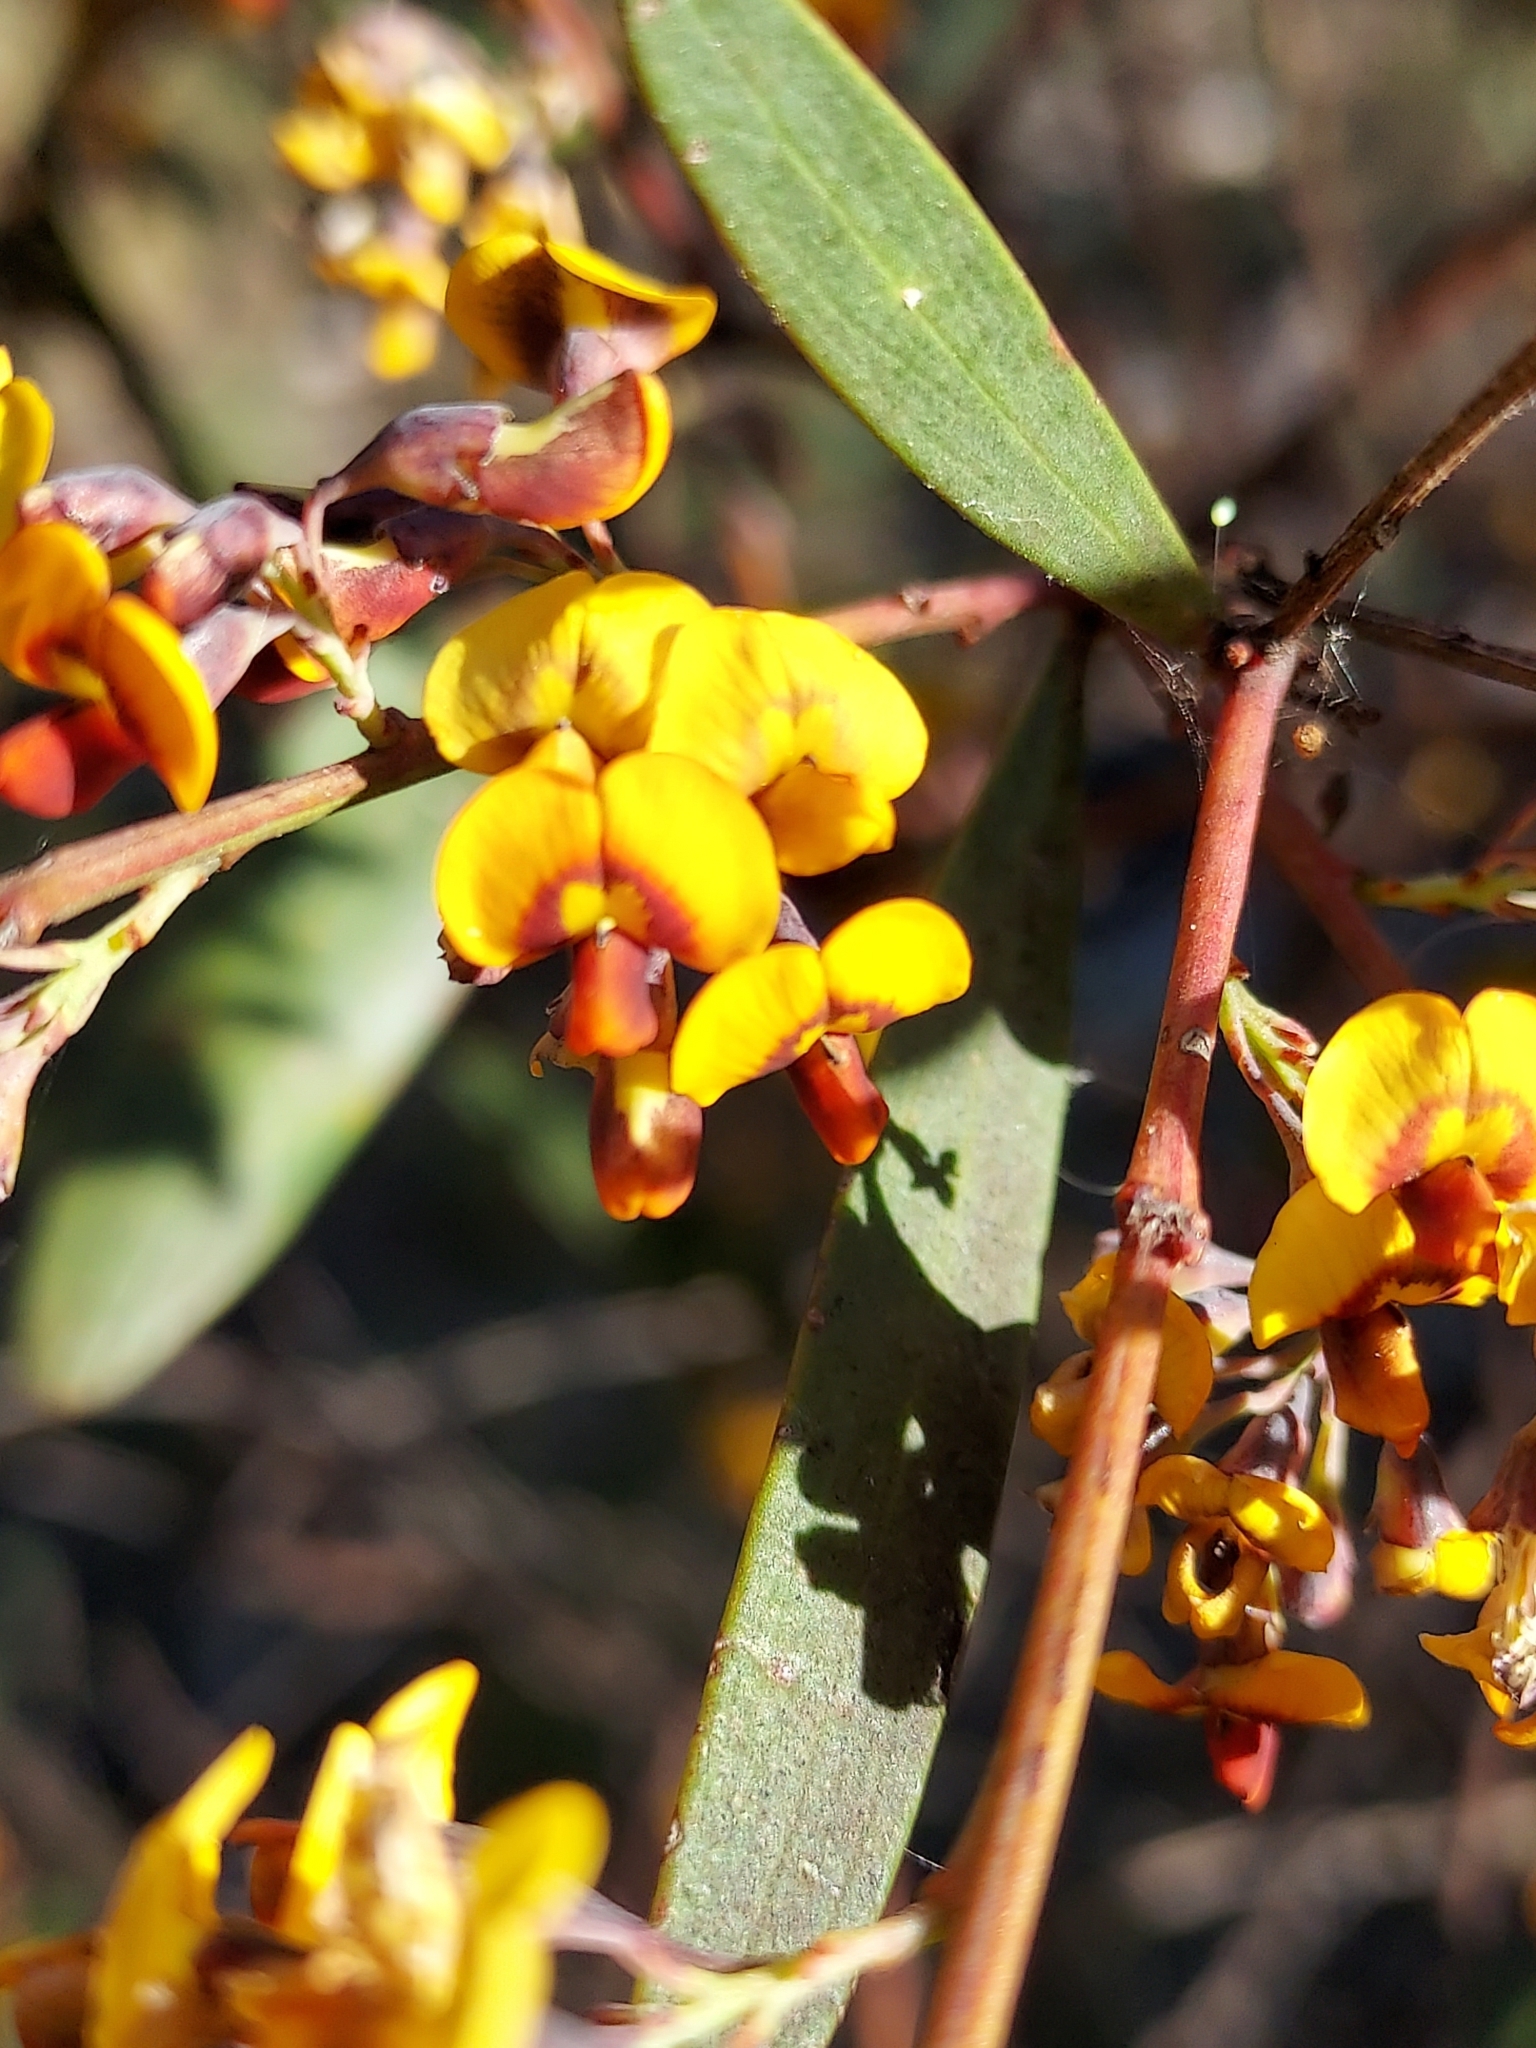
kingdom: Plantae
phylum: Tracheophyta
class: Magnoliopsida
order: Fabales
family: Fabaceae
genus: Daviesia
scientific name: Daviesia mimosoides
